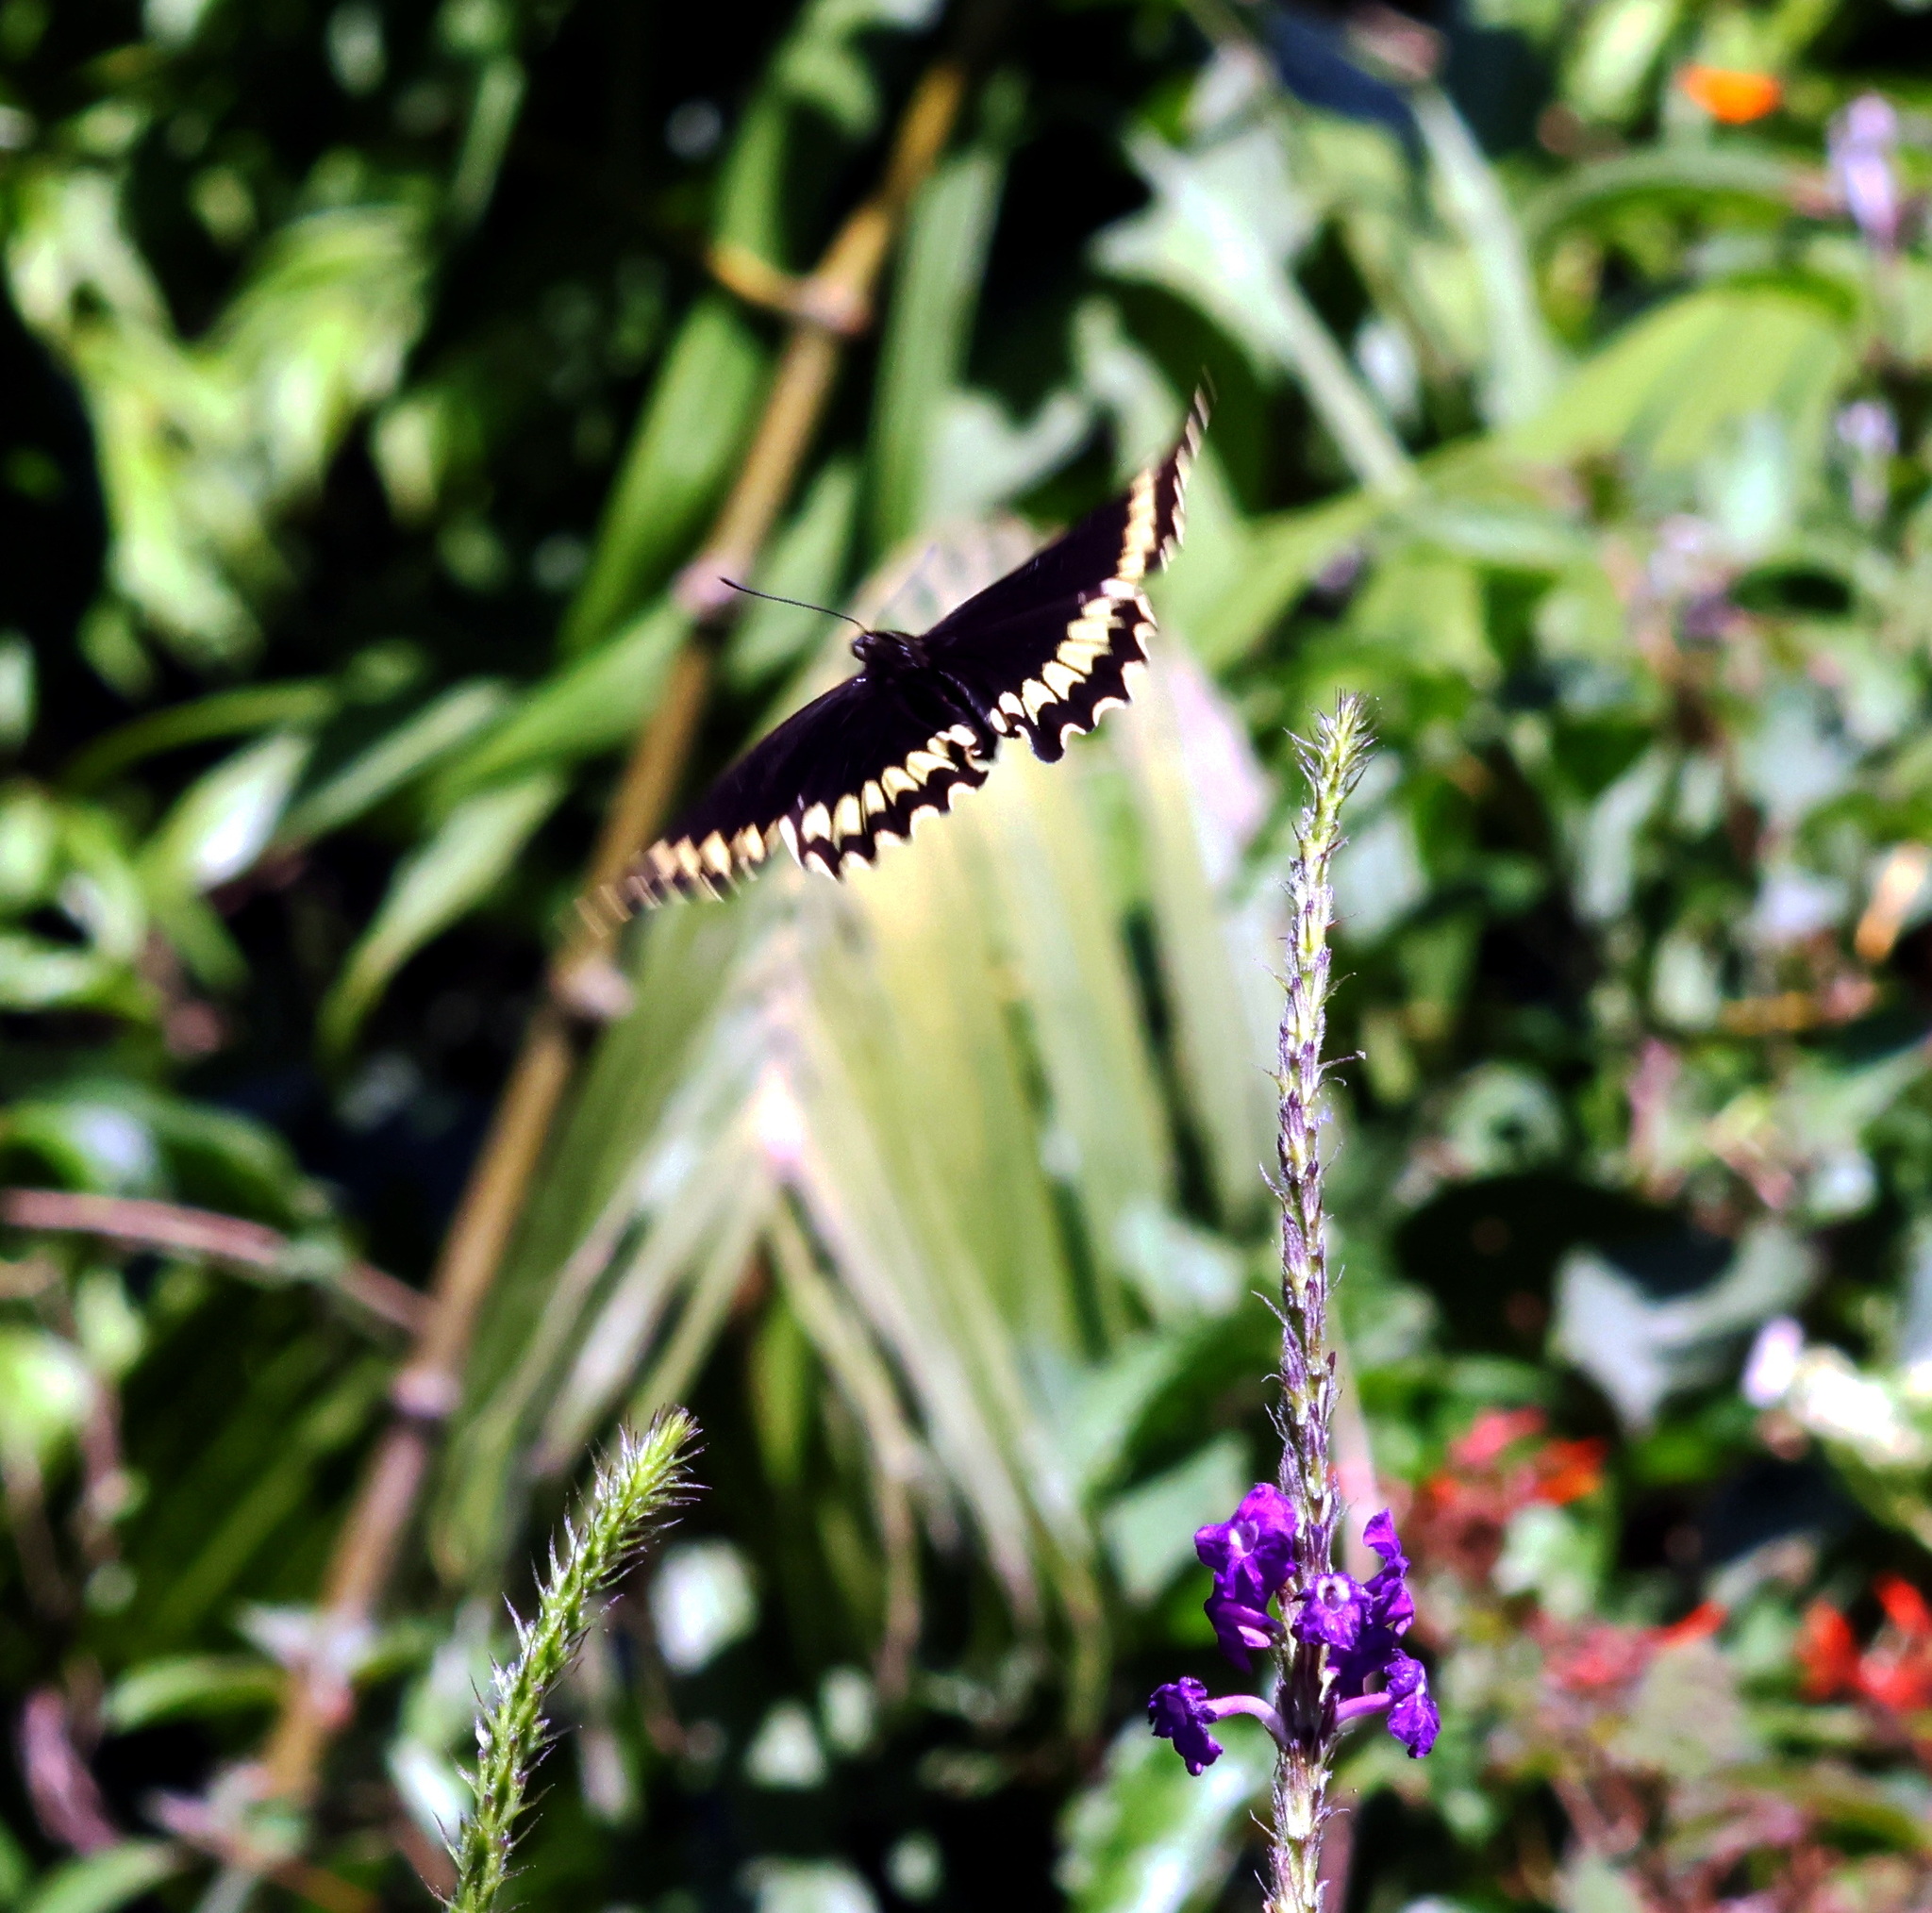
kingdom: Animalia
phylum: Arthropoda
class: Insecta
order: Lepidoptera
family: Papilionidae
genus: Battus
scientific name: Battus polydamas
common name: Polydamas swallowtail
